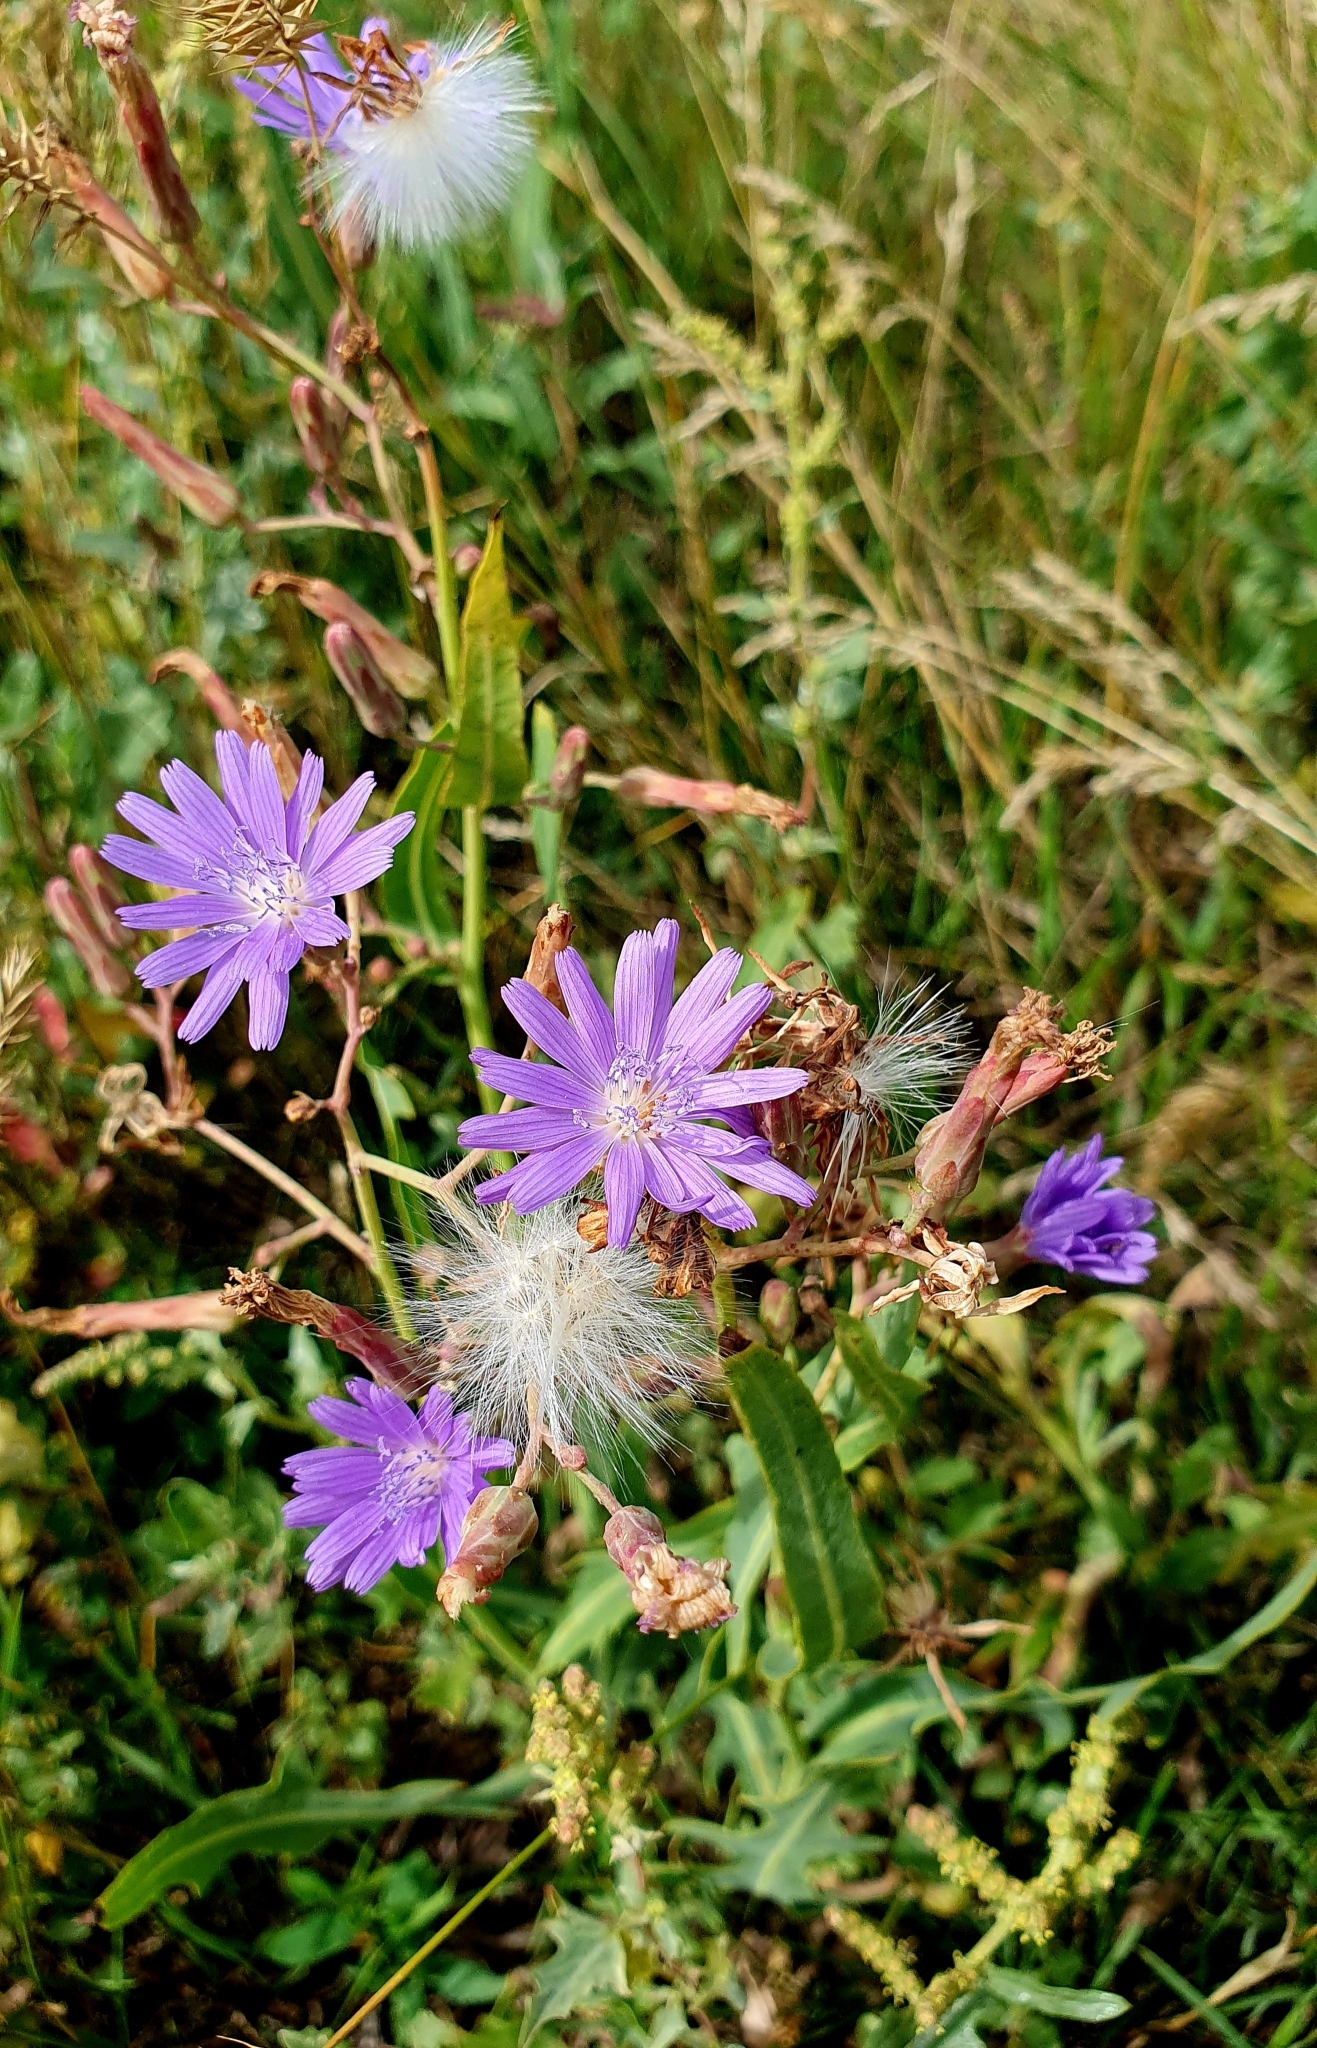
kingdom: Plantae
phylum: Tracheophyta
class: Magnoliopsida
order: Asterales
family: Asteraceae
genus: Lactuca
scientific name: Lactuca tatarica
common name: Blue lettuce
